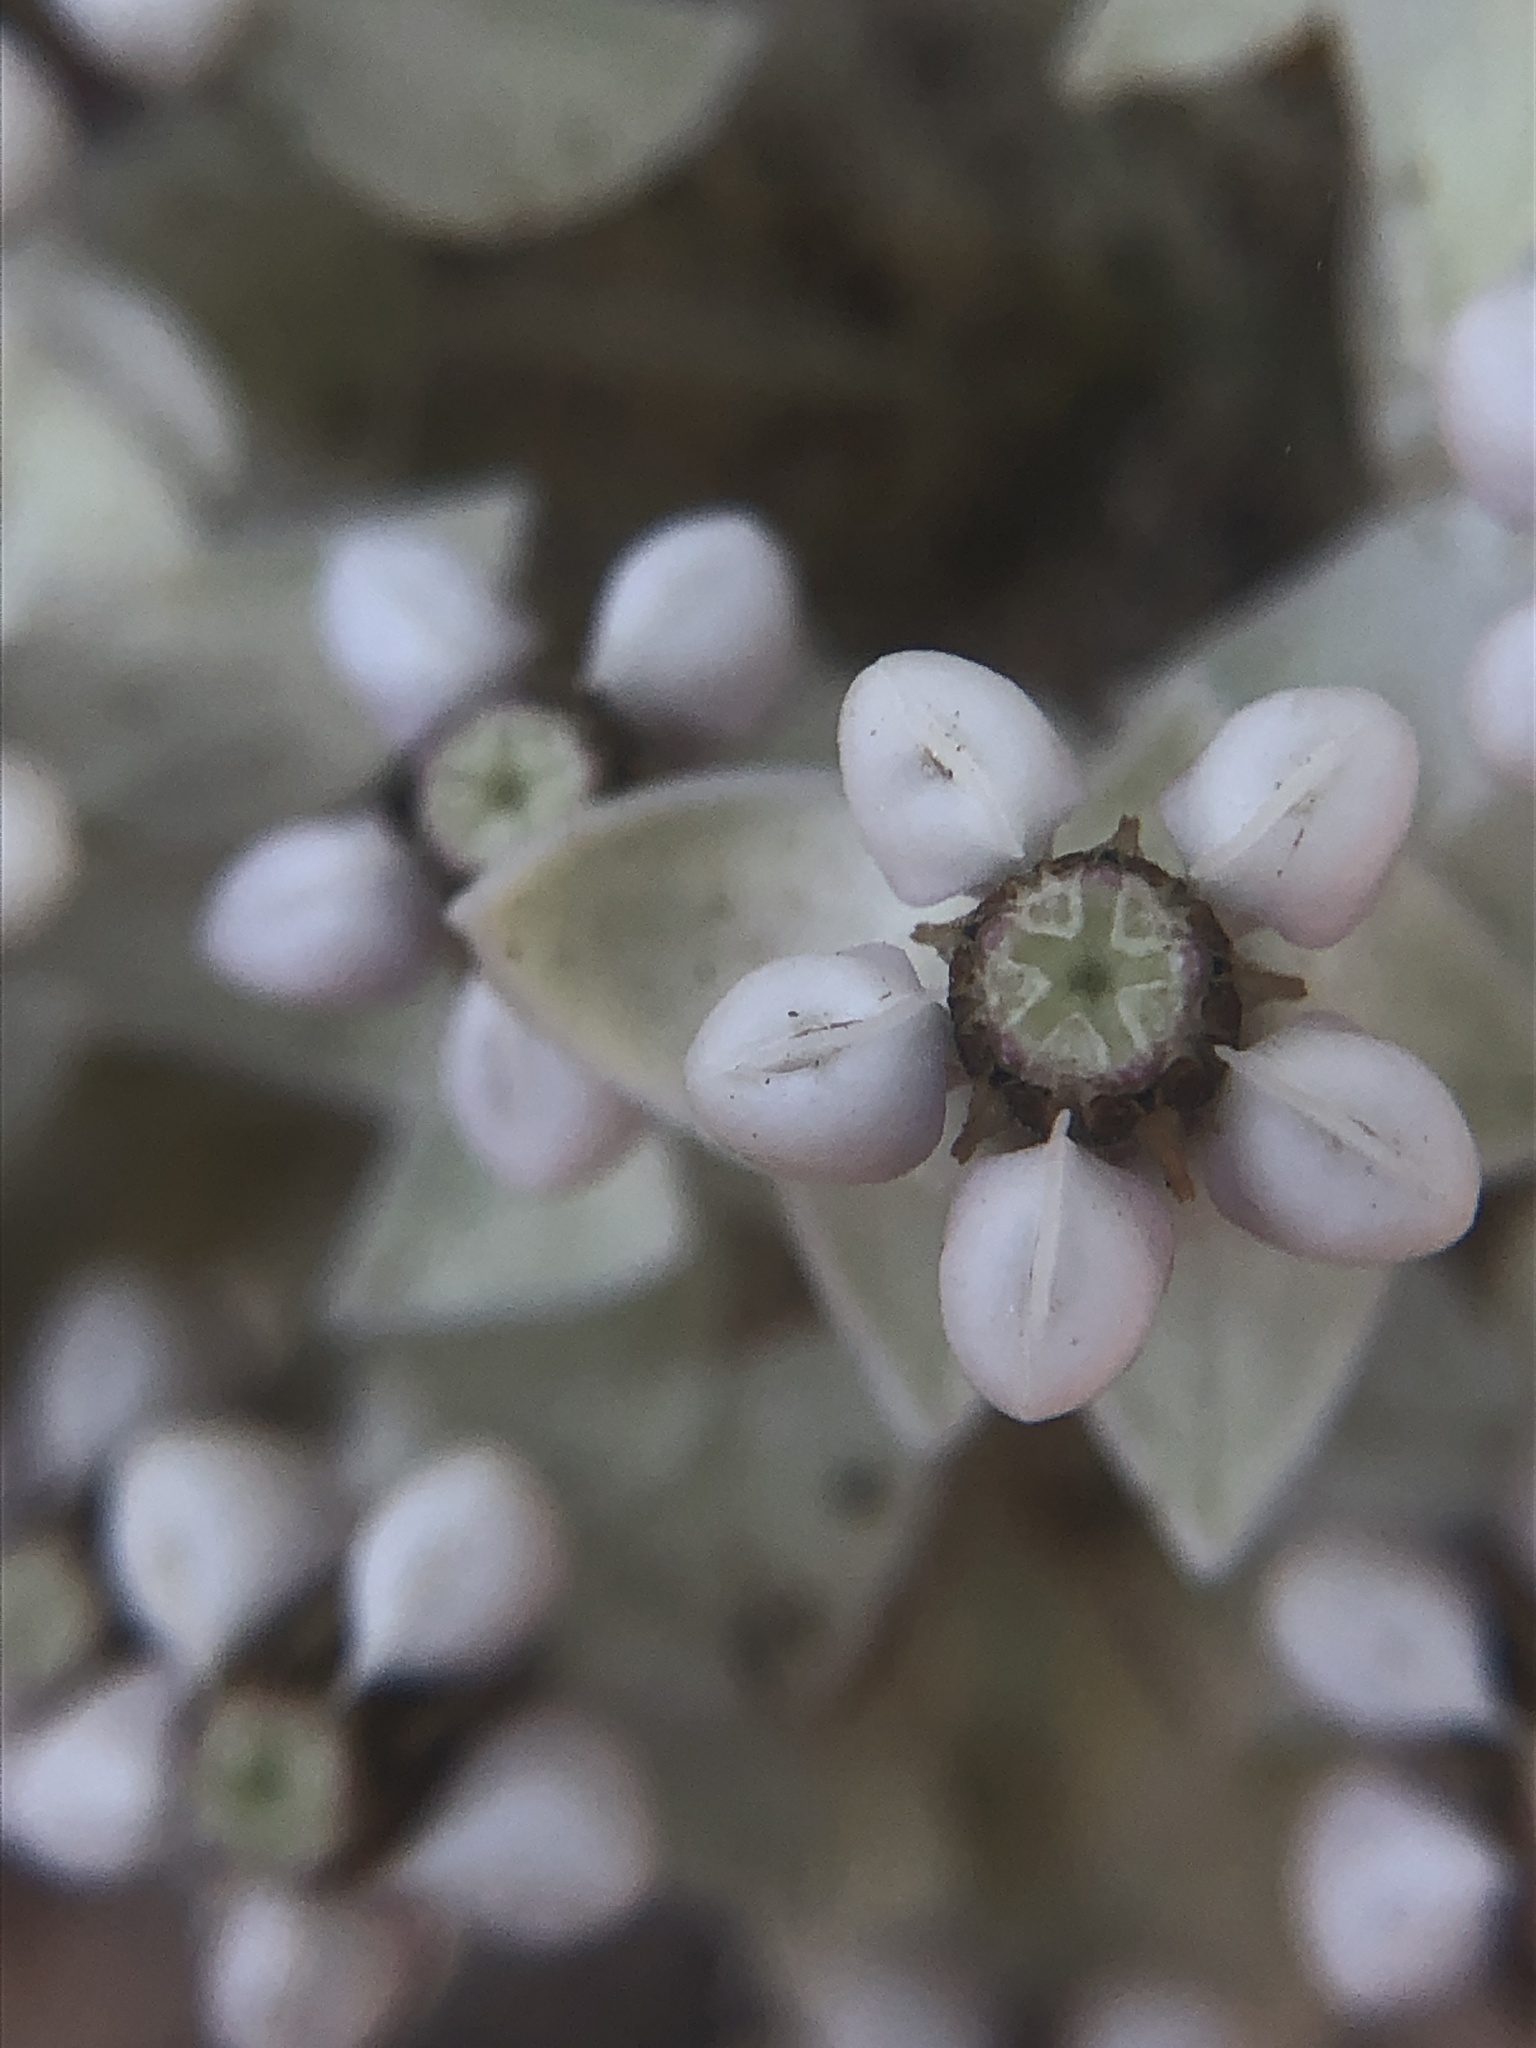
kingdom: Plantae
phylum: Tracheophyta
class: Magnoliopsida
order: Gentianales
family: Apocynaceae
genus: Asclepias
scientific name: Asclepias eriocarpa
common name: Indian milkweed
